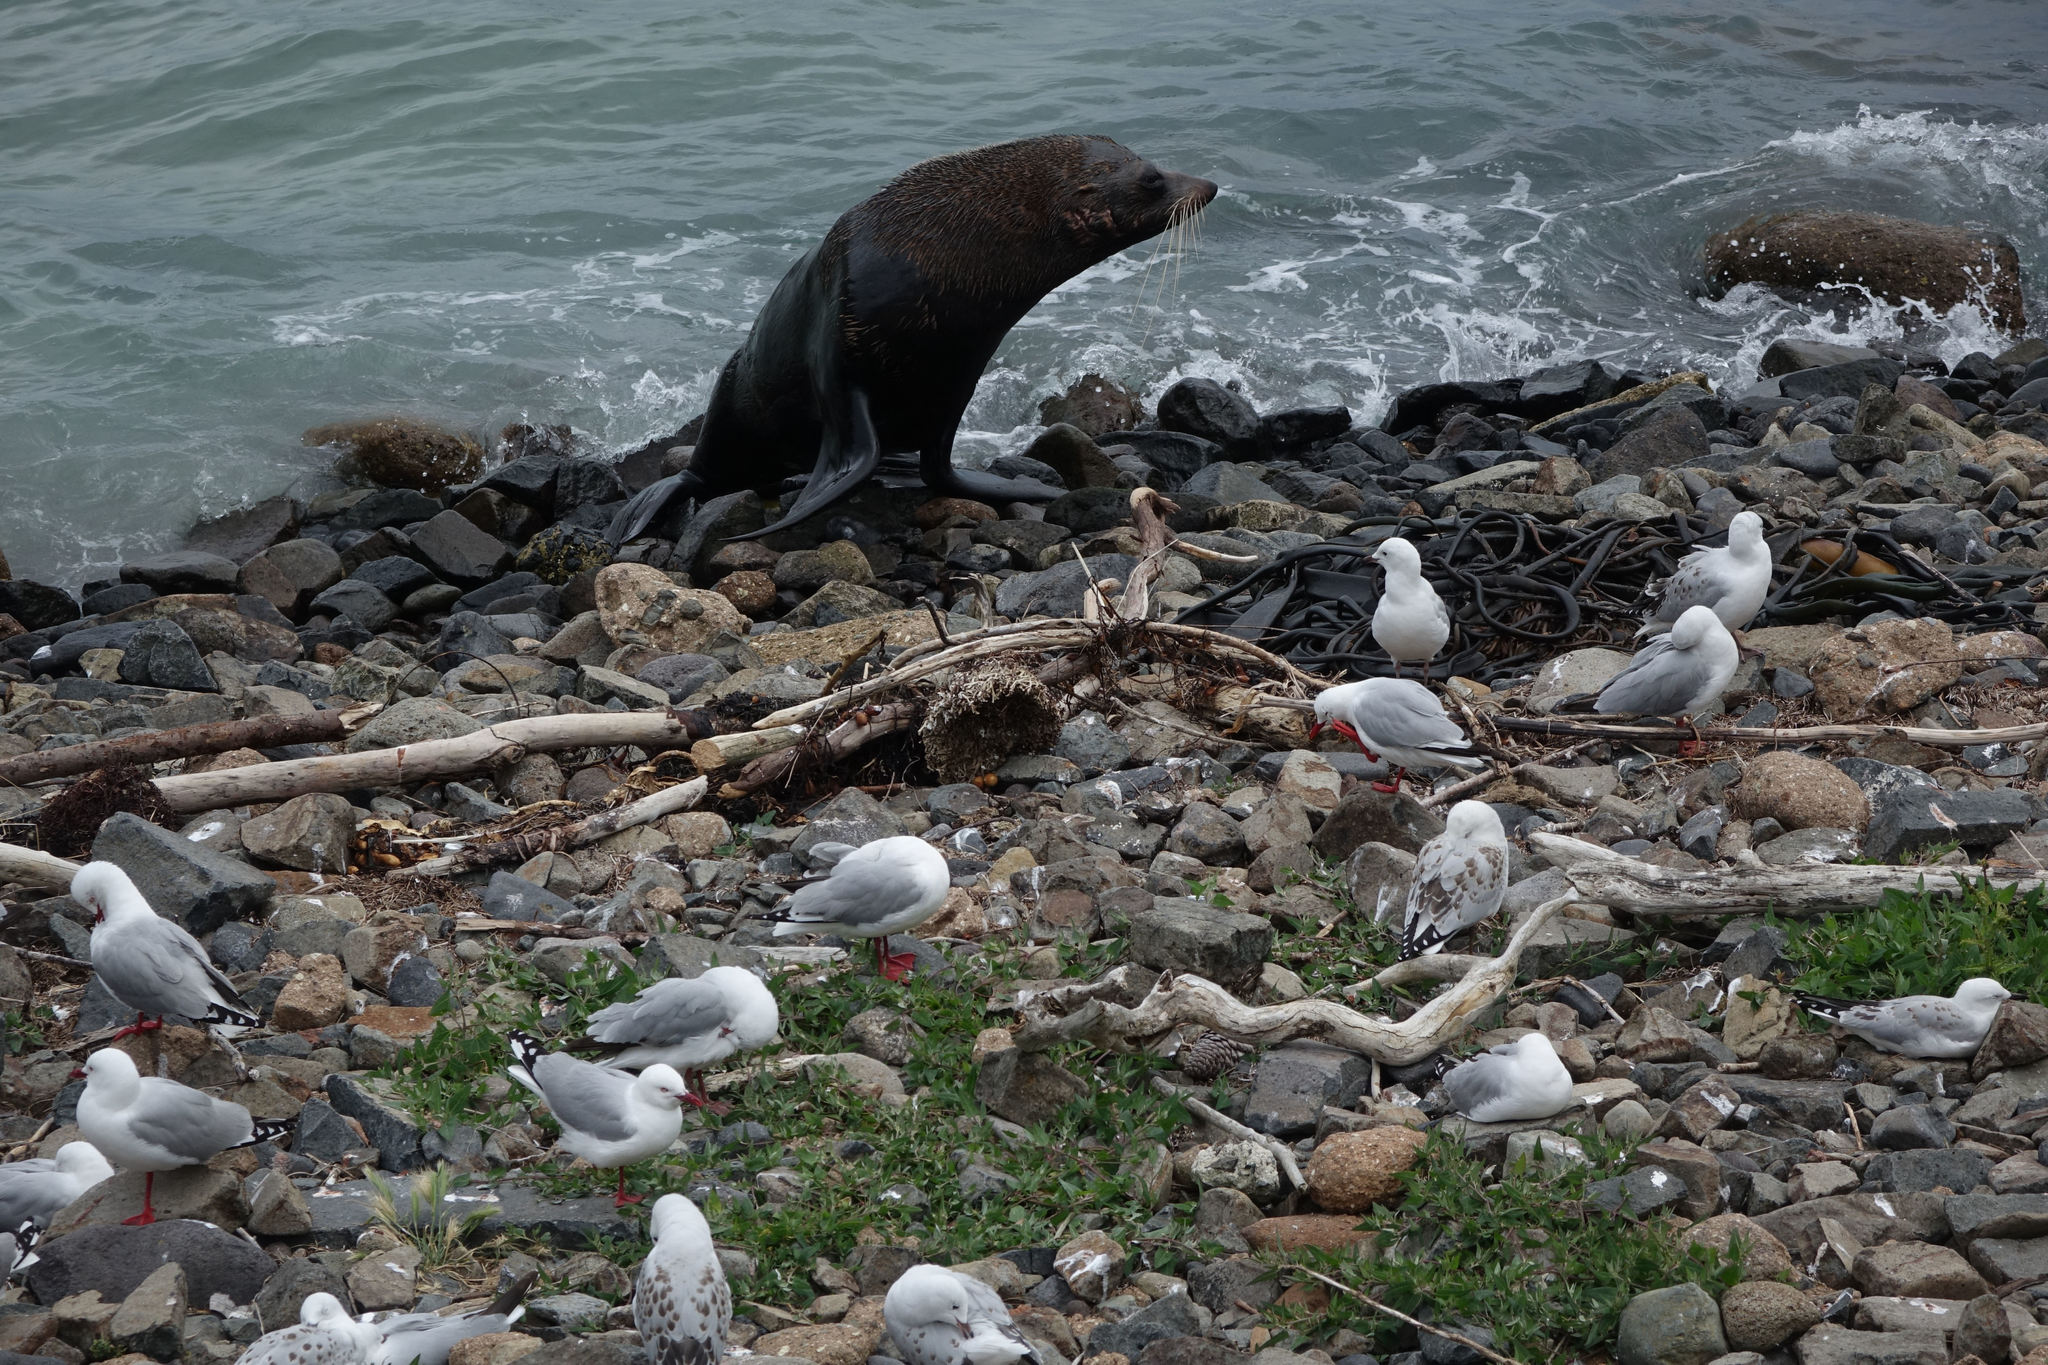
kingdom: Animalia
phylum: Chordata
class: Mammalia
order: Carnivora
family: Otariidae
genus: Arctocephalus
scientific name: Arctocephalus forsteri
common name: New zealand fur seal
